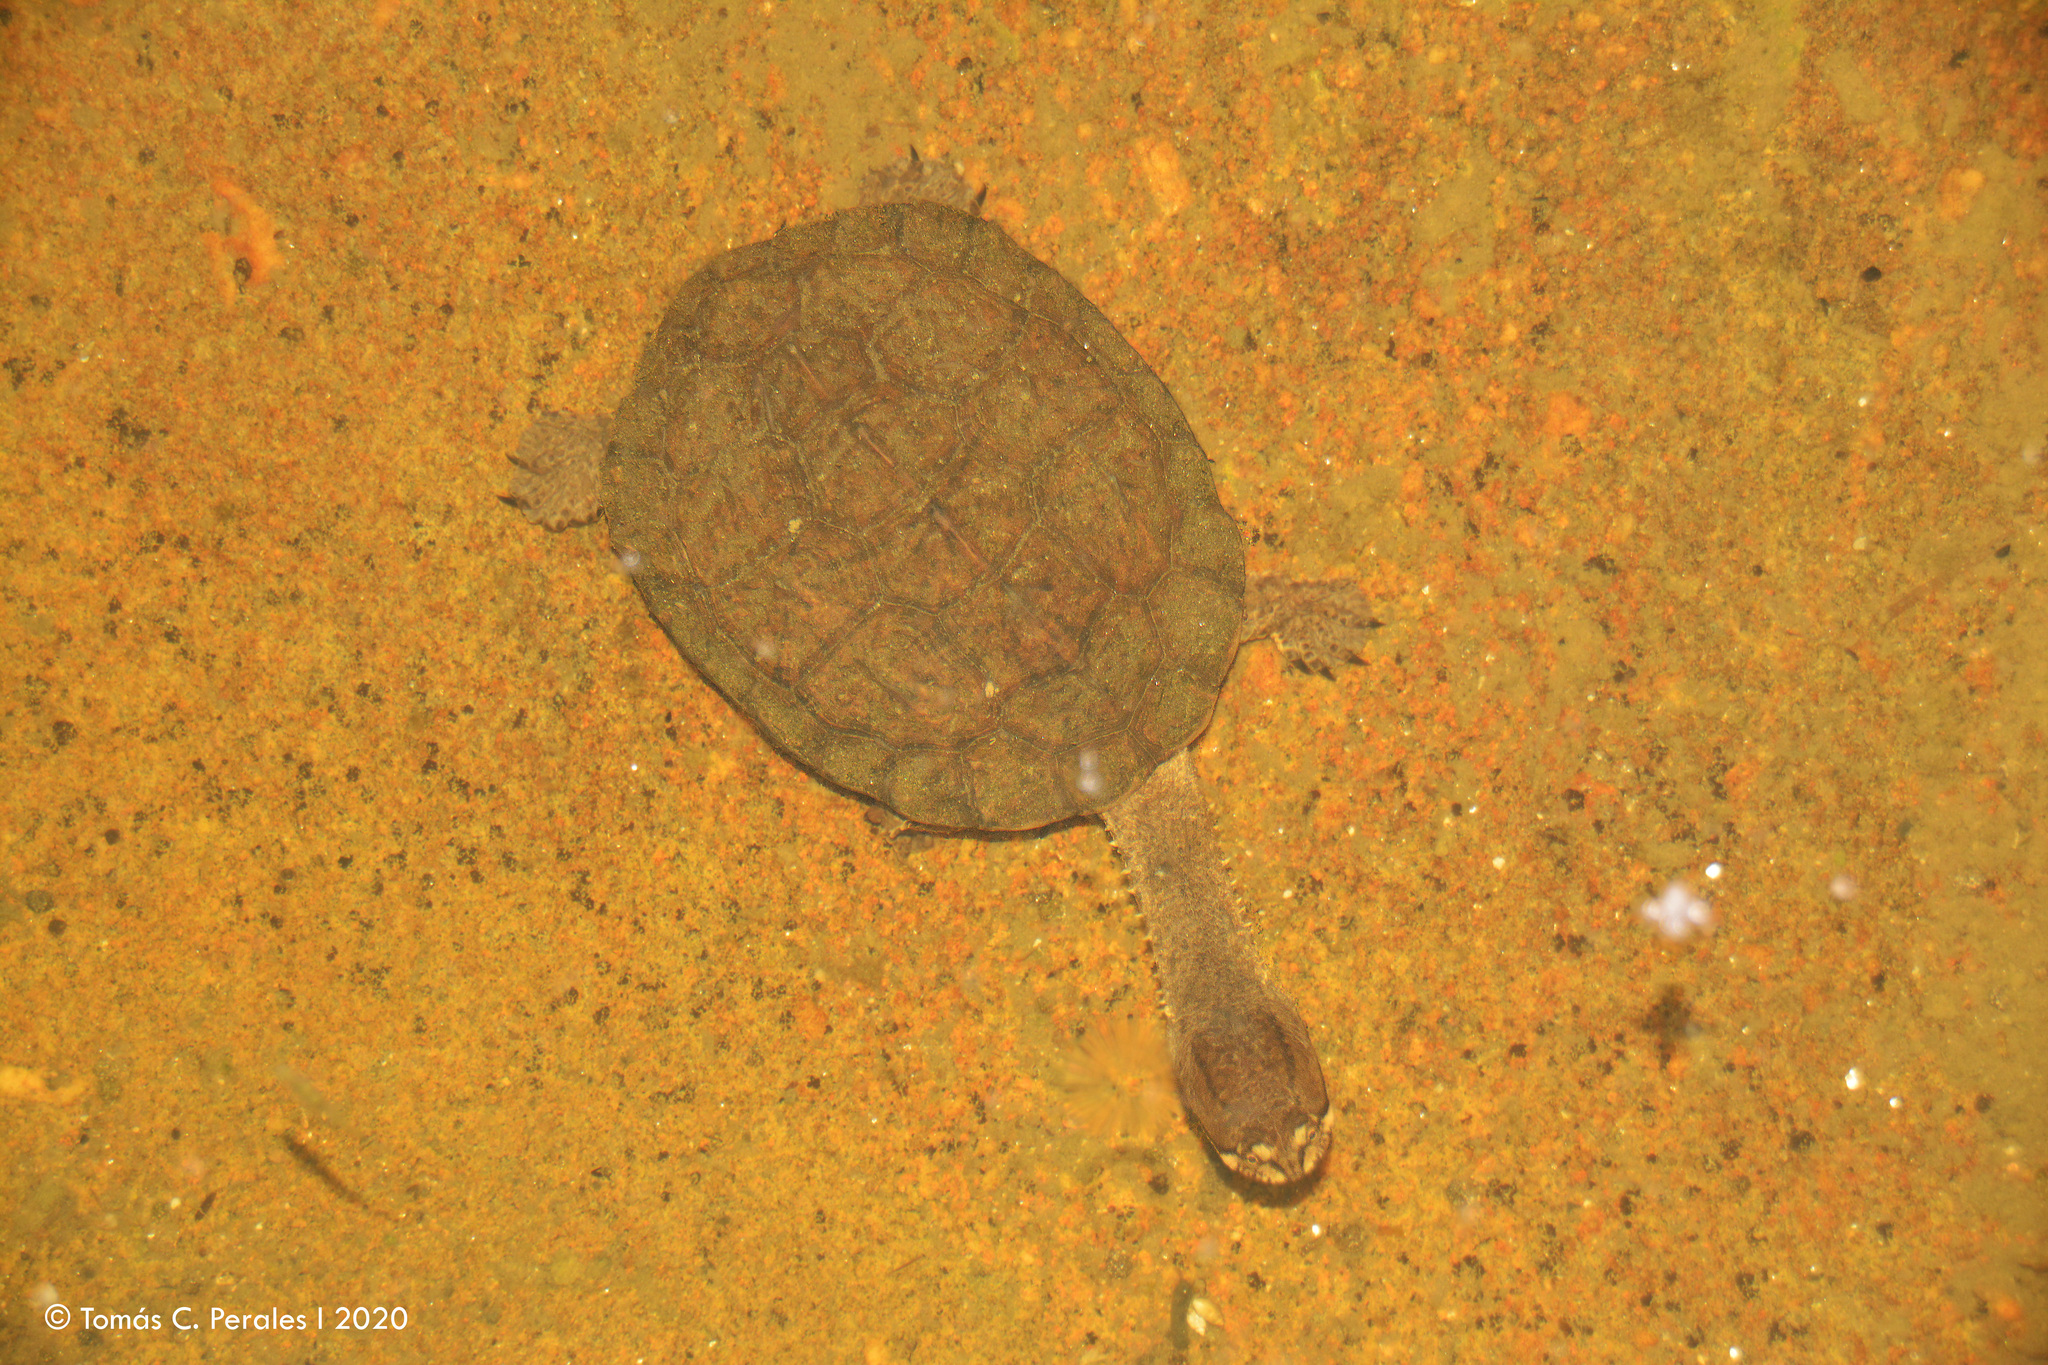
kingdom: Animalia
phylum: Chordata
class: Testudines
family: Chelidae
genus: Hydromedusa
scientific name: Hydromedusa tectifera
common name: Argentine snake-necked turtle
